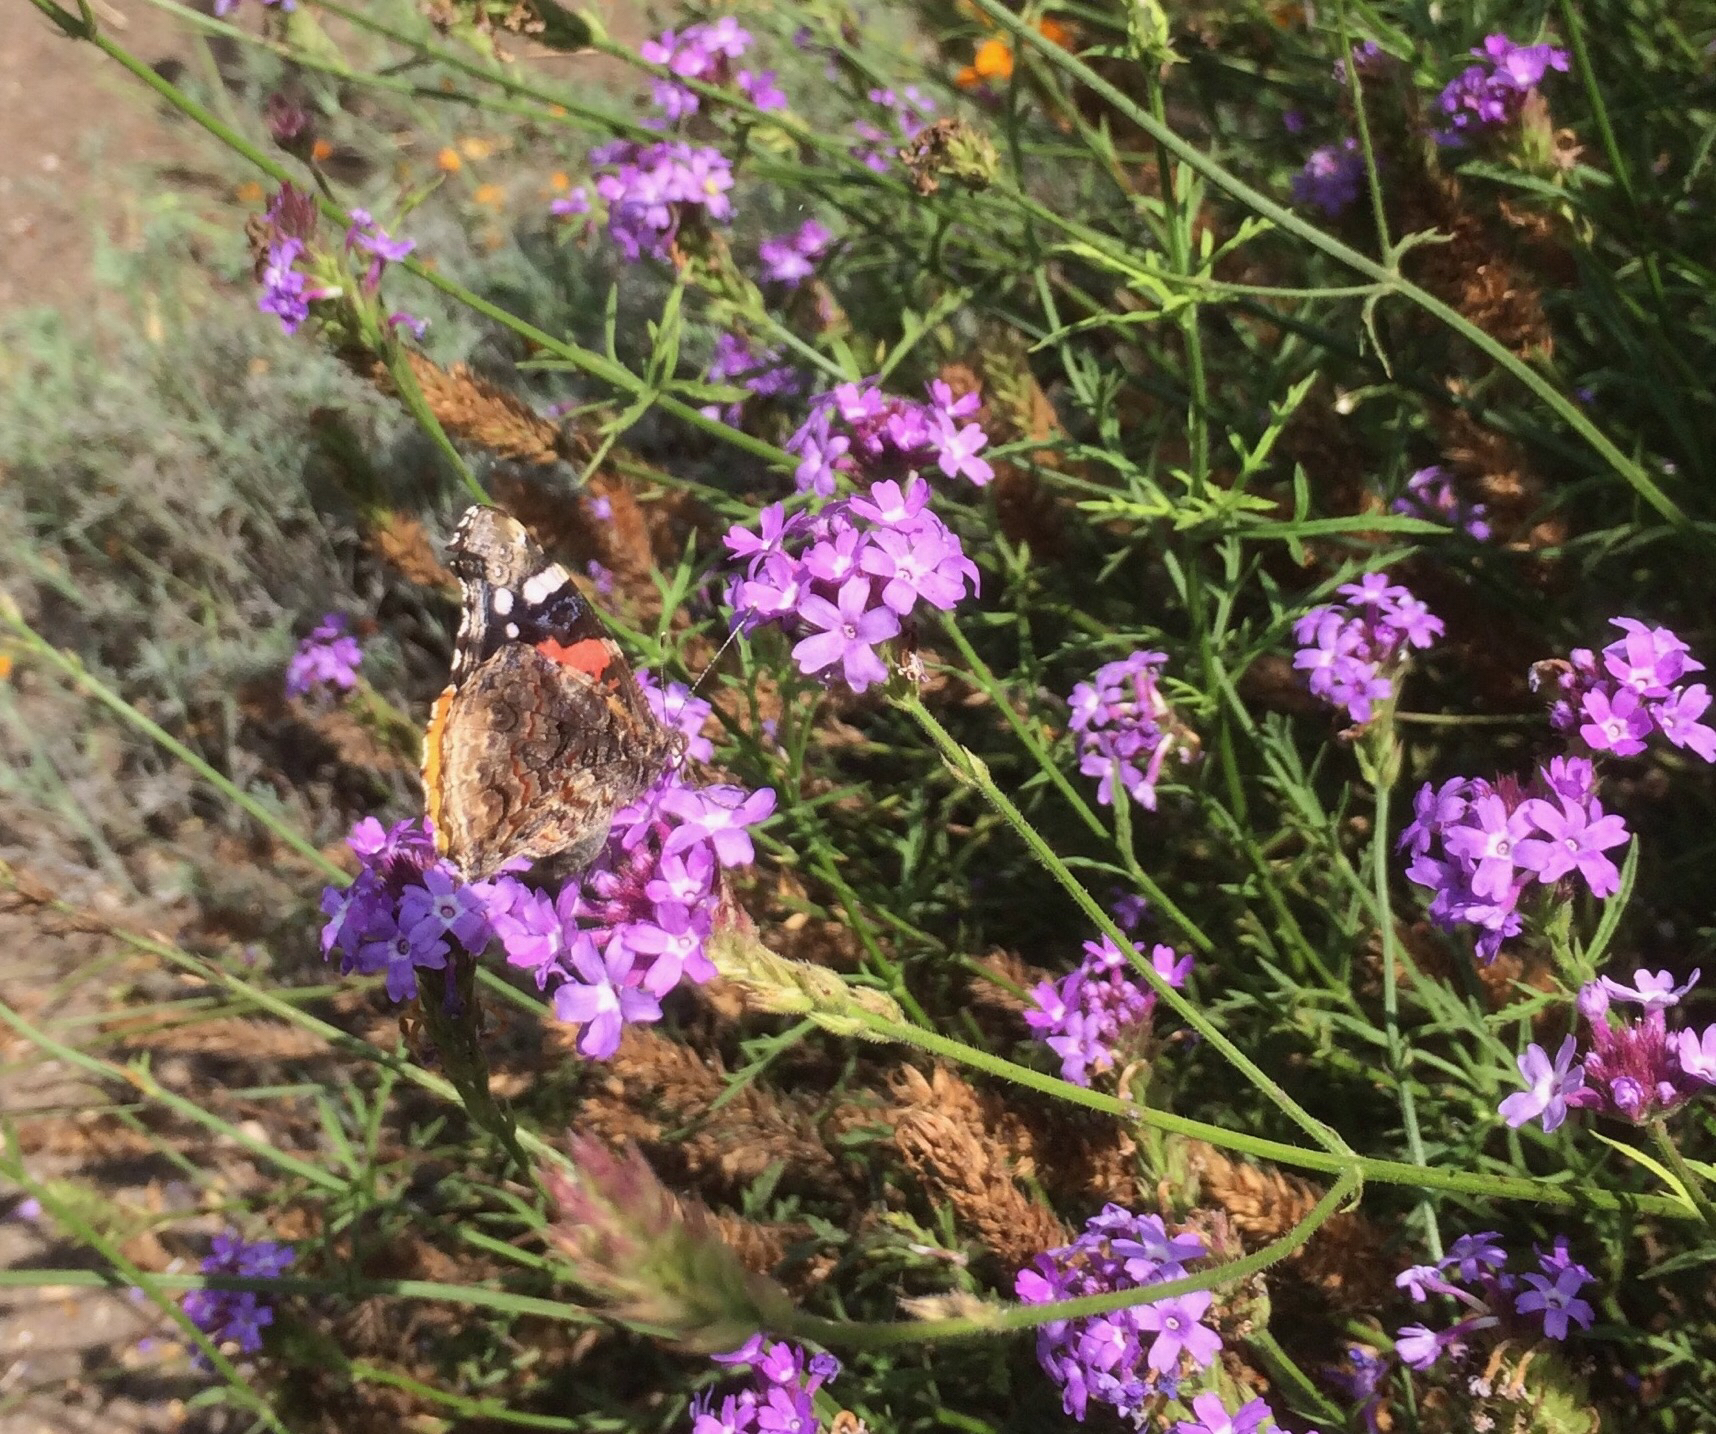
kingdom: Animalia
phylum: Arthropoda
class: Insecta
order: Lepidoptera
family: Nymphalidae
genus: Vanessa
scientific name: Vanessa atalanta
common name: Red admiral
